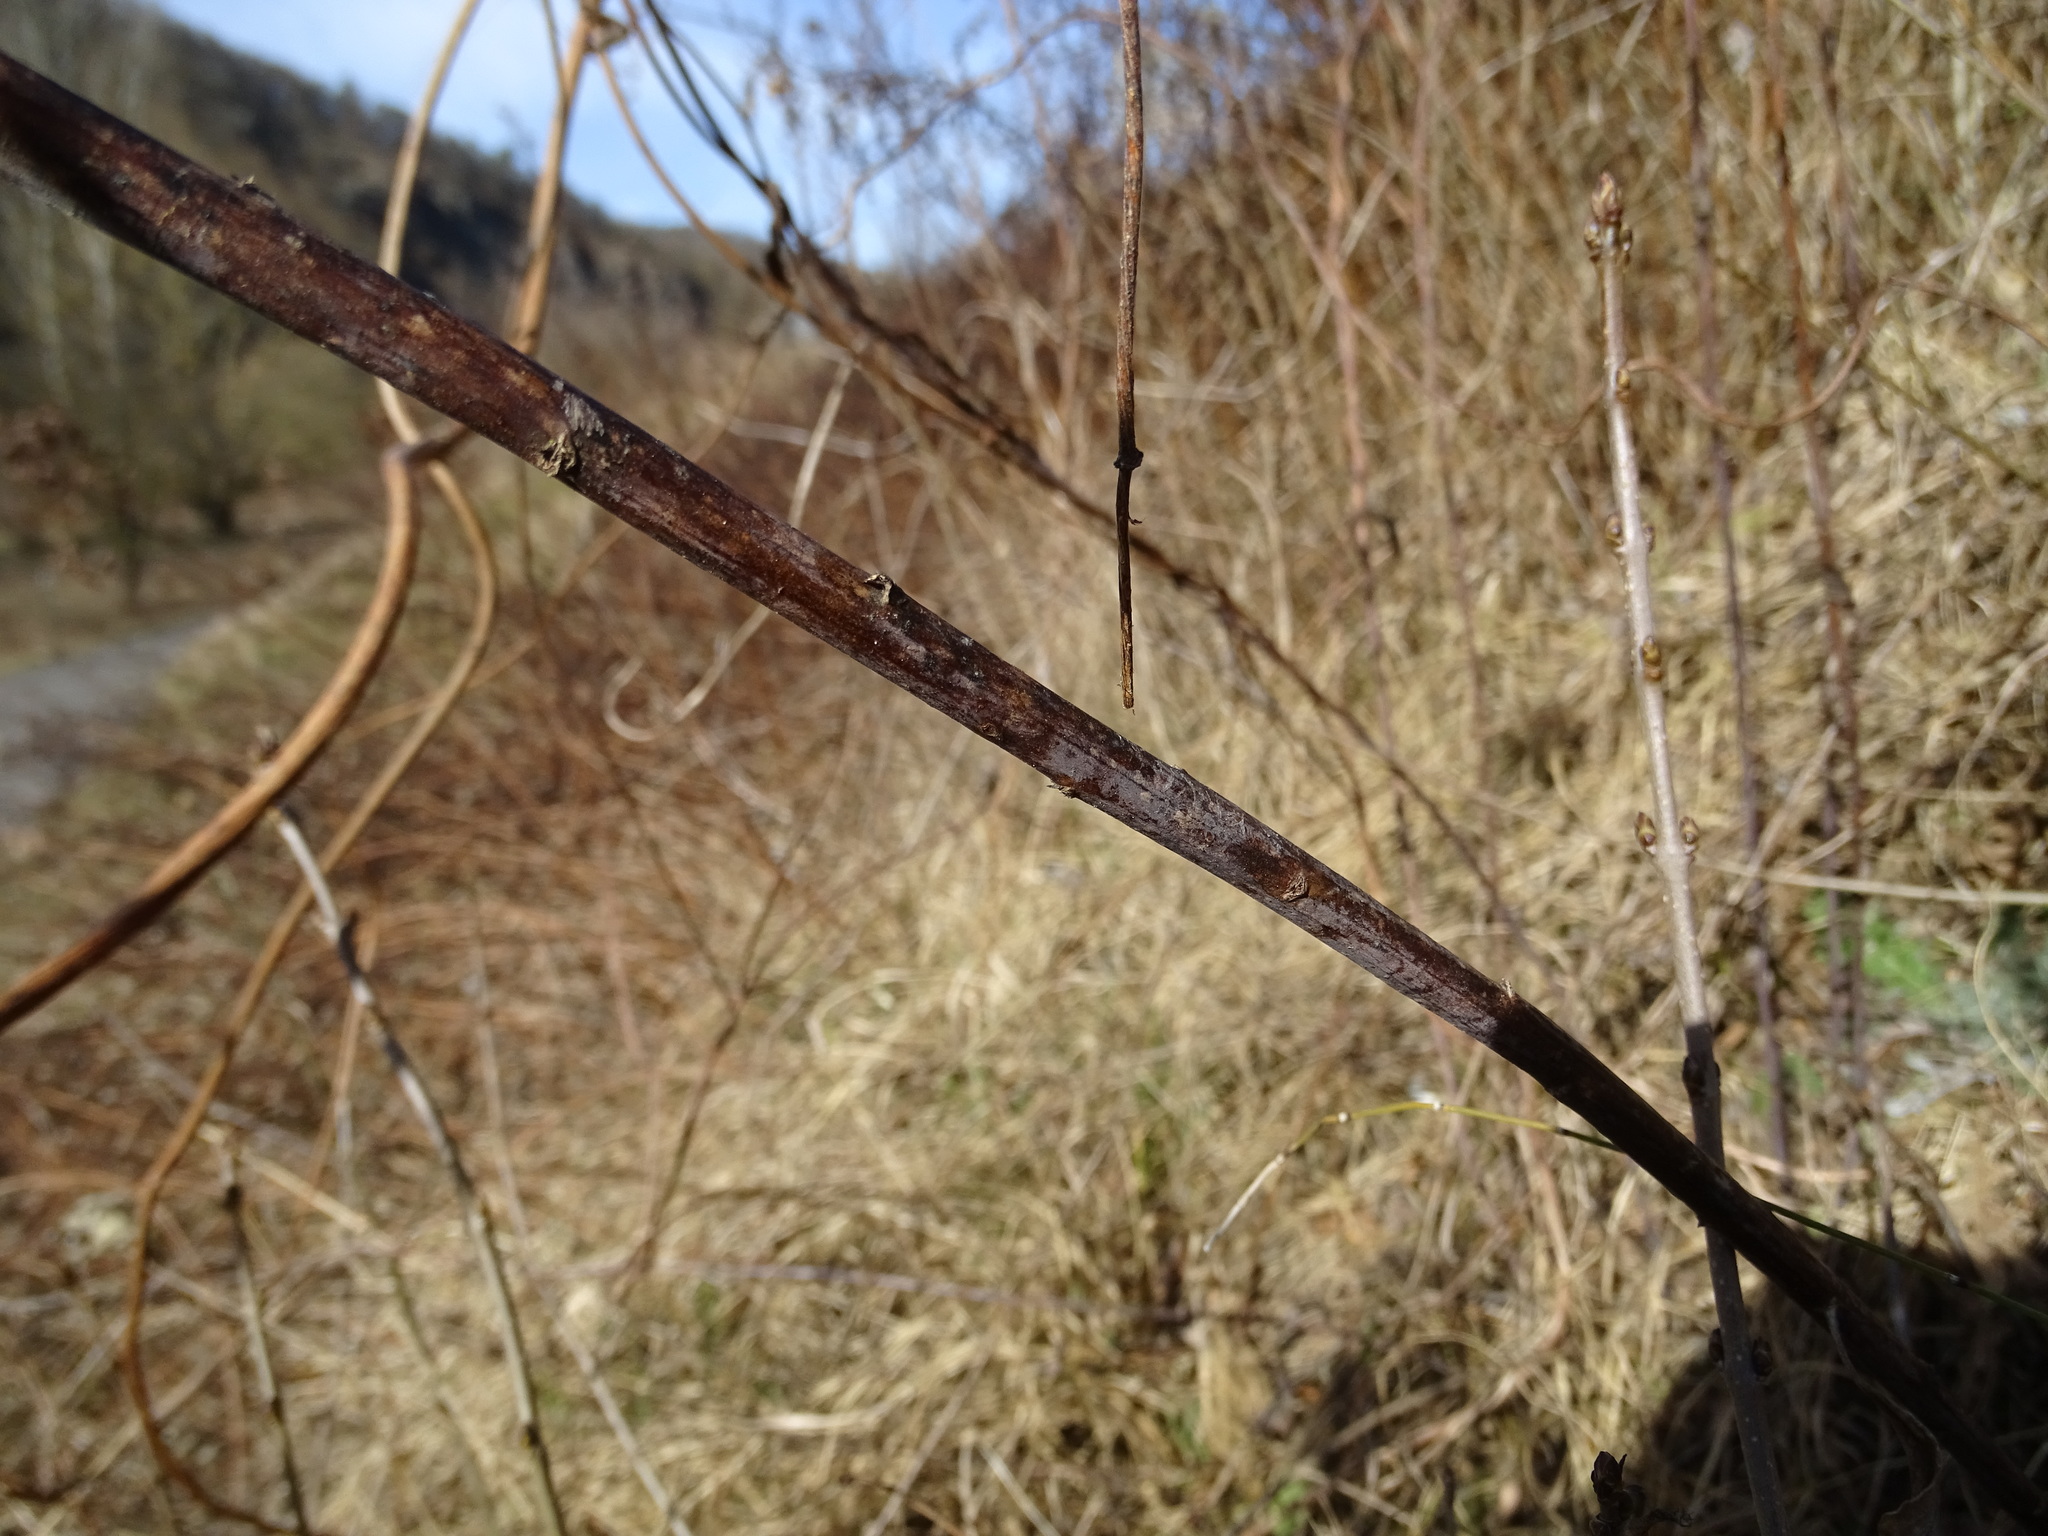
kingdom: Plantae
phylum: Tracheophyta
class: Magnoliopsida
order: Asterales
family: Asteraceae
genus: Solidago
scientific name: Solidago gigantea
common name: Giant goldenrod
